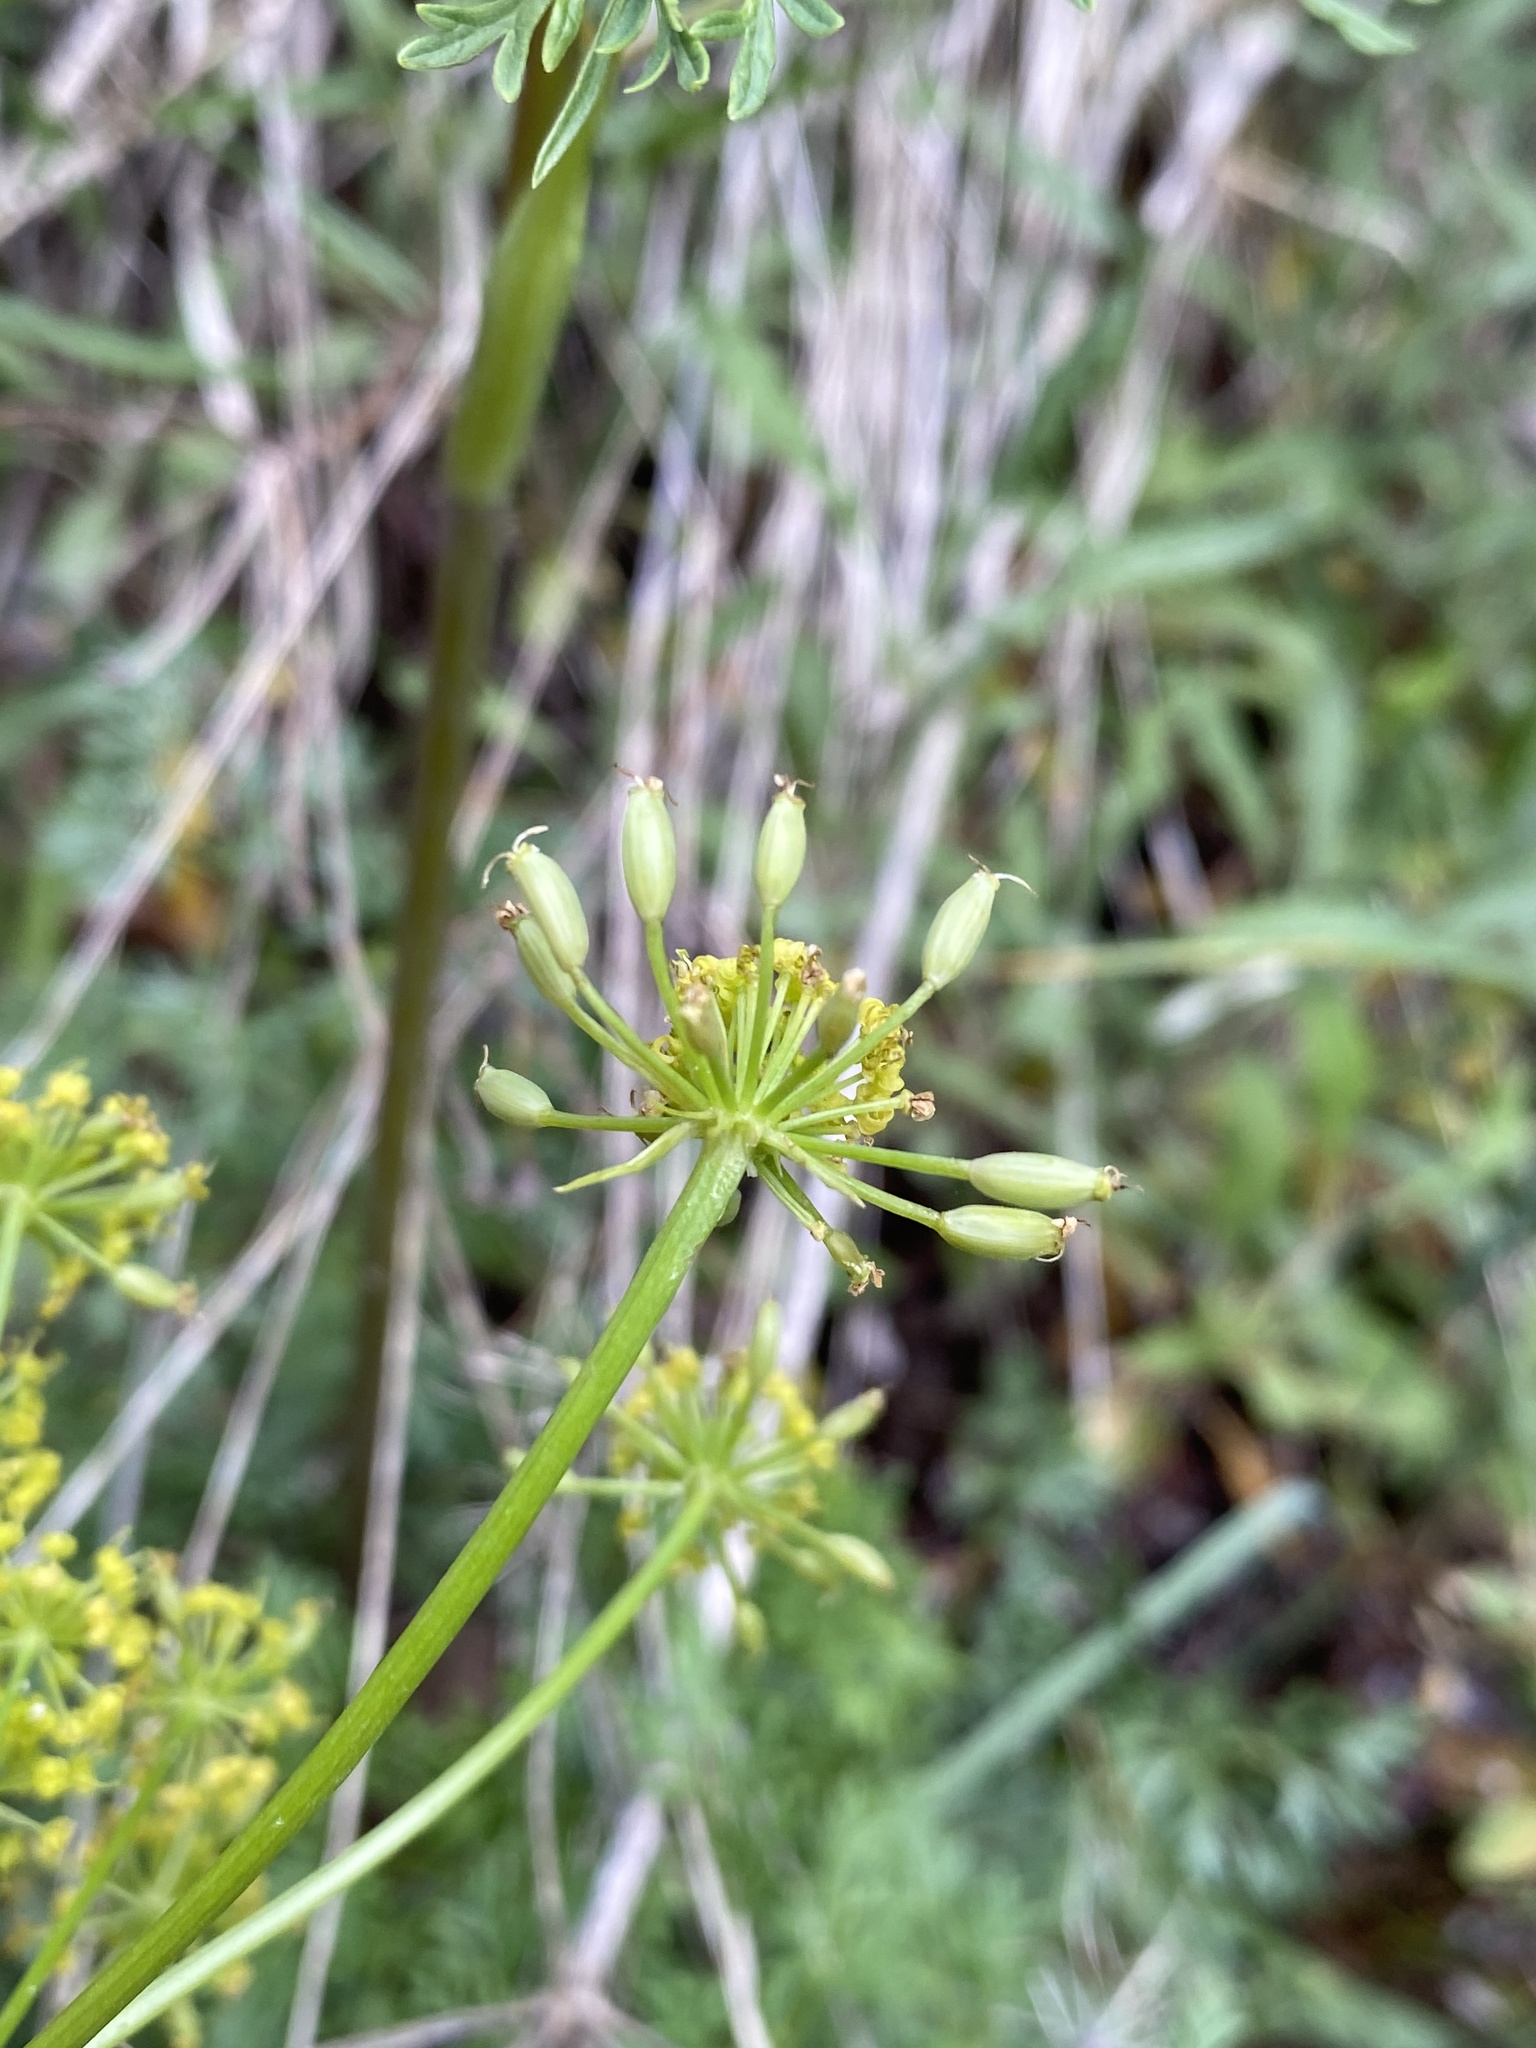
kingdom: Plantae
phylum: Tracheophyta
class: Magnoliopsida
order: Apiales
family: Apiaceae
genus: Lomatium
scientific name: Lomatium multifidum
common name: Carrot-leaved biscuitroot
